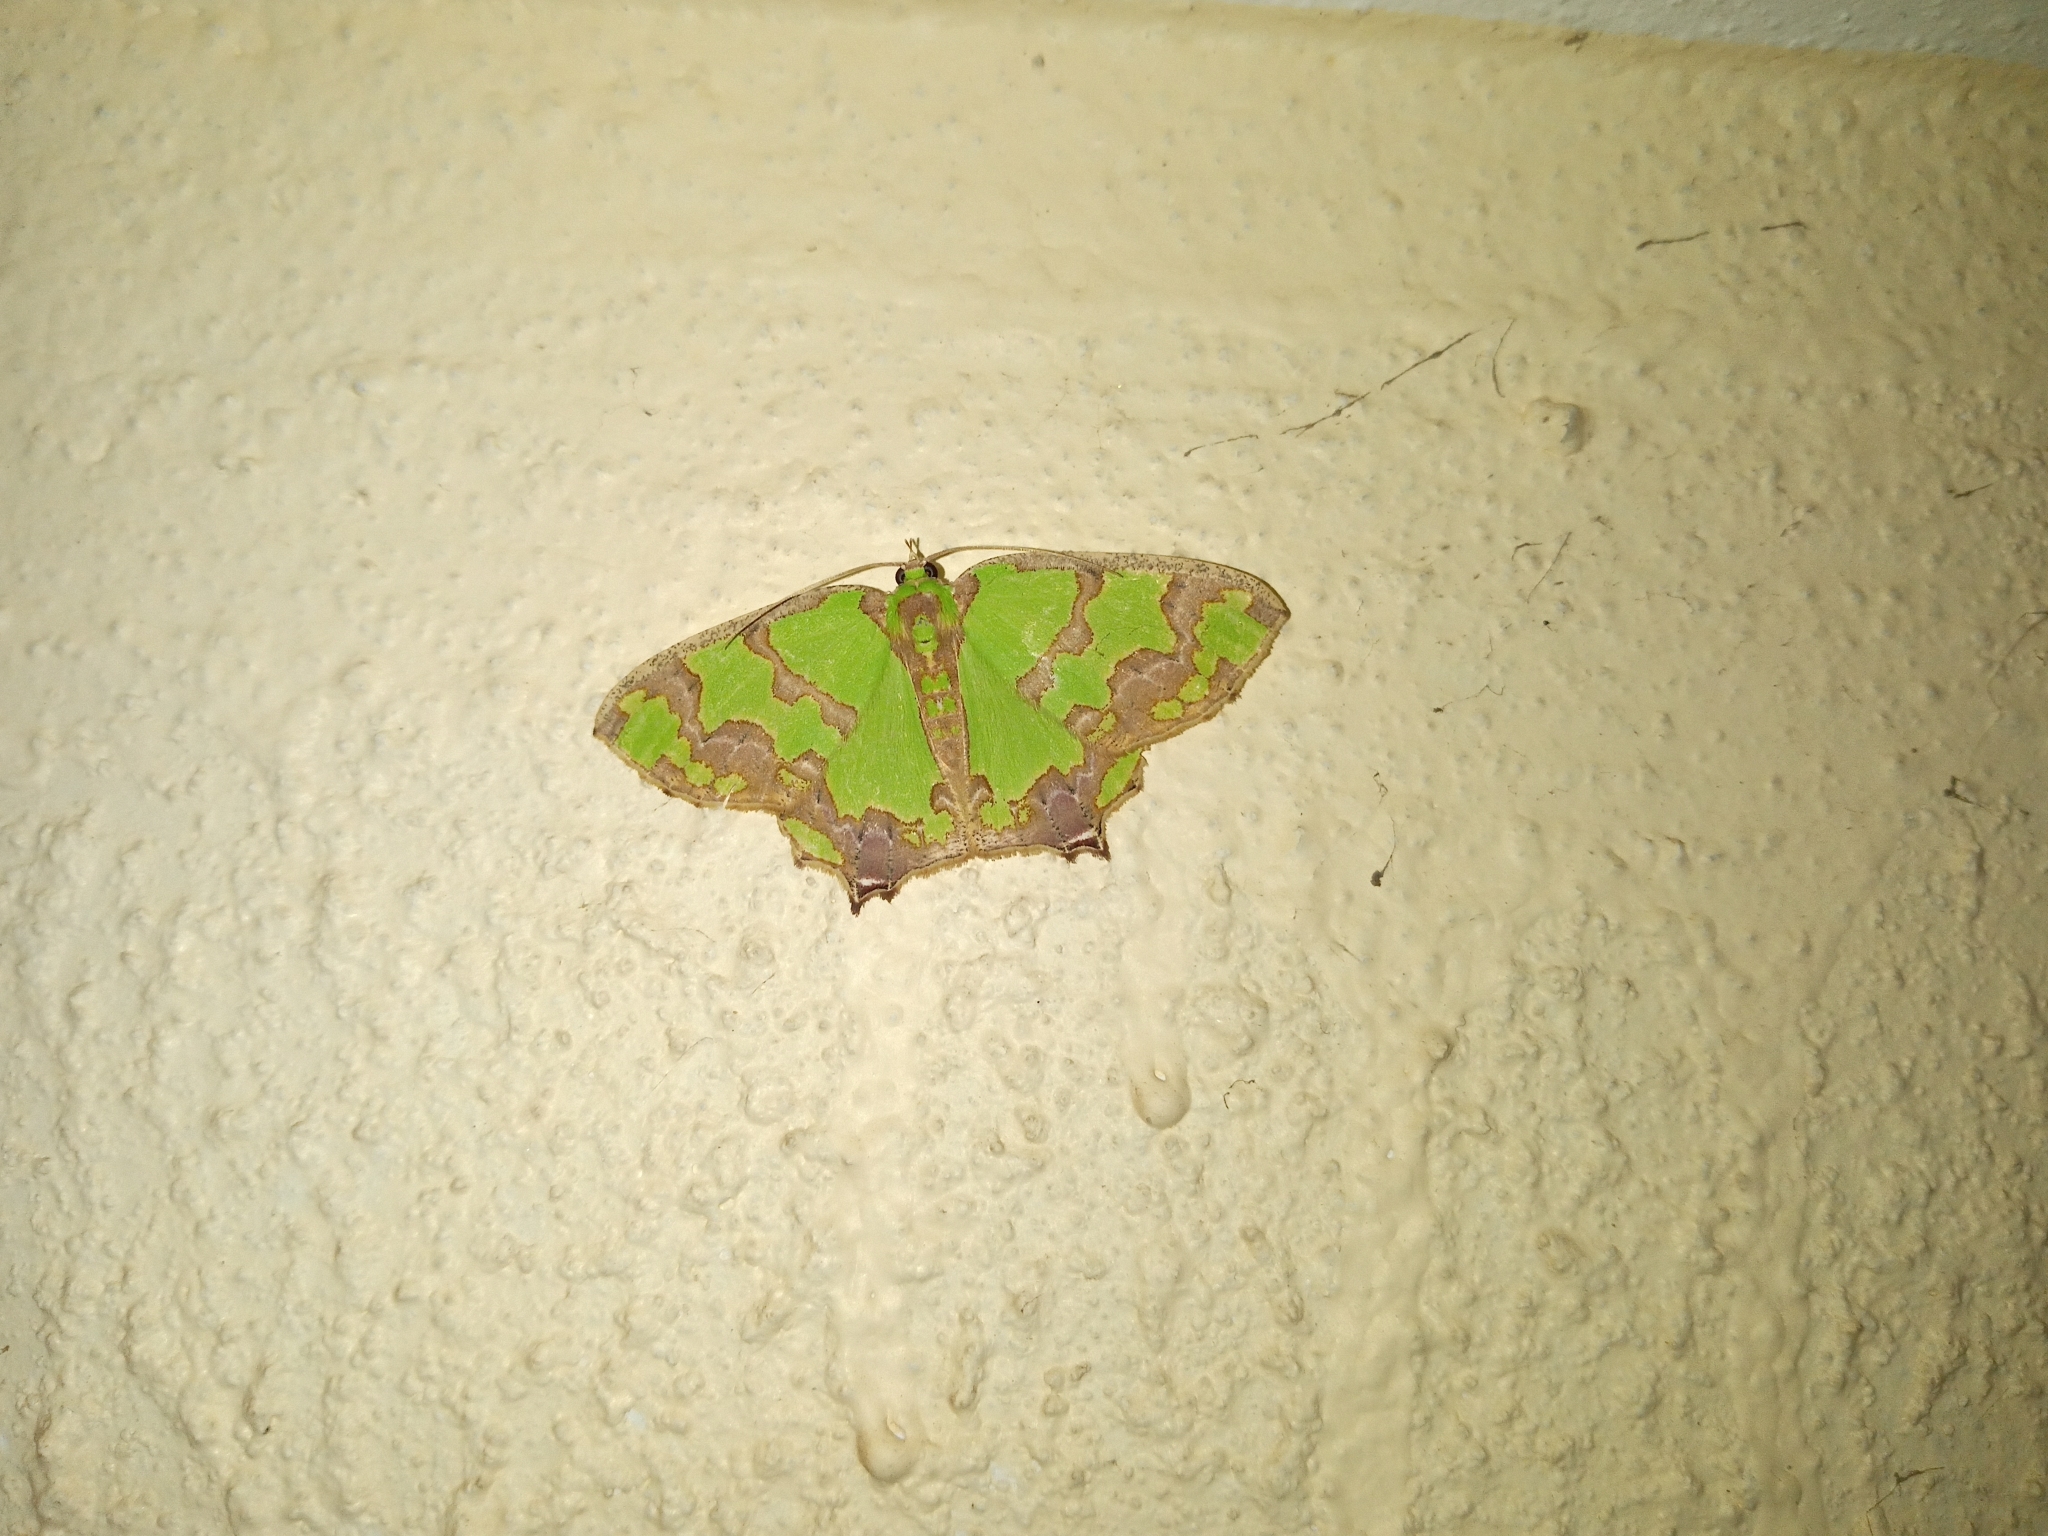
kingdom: Animalia
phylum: Arthropoda
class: Insecta
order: Lepidoptera
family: Geometridae
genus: Agathia
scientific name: Agathia hemithearia
